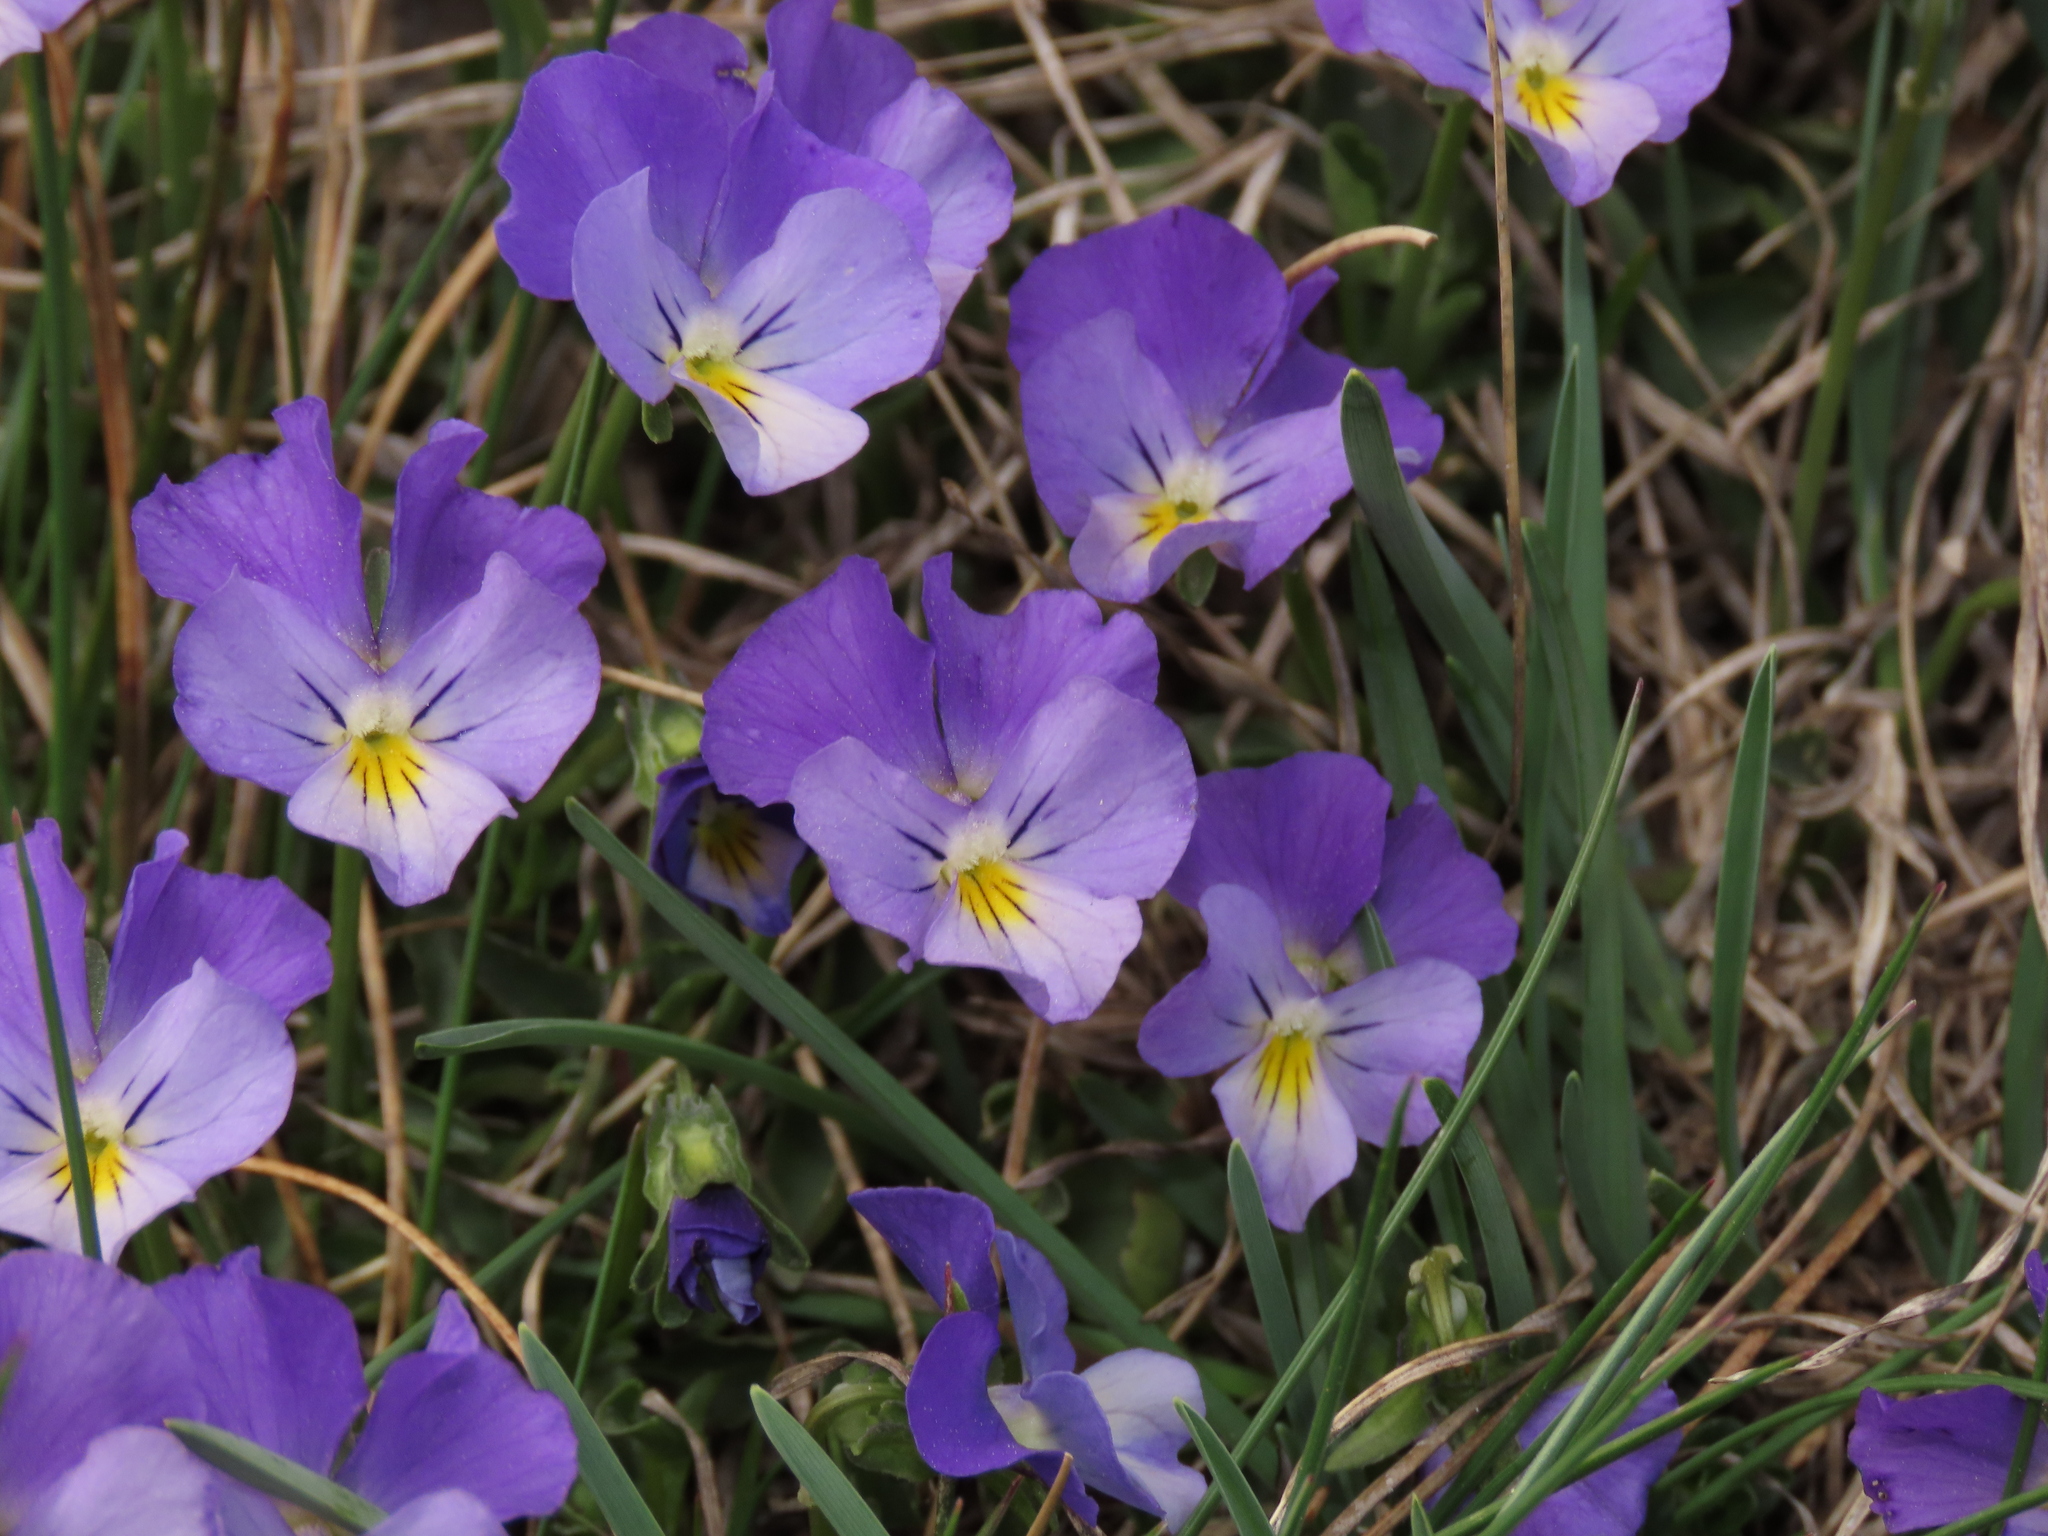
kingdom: Plantae
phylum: Tracheophyta
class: Magnoliopsida
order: Malpighiales
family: Violaceae
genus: Viola
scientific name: Viola eugeniae
